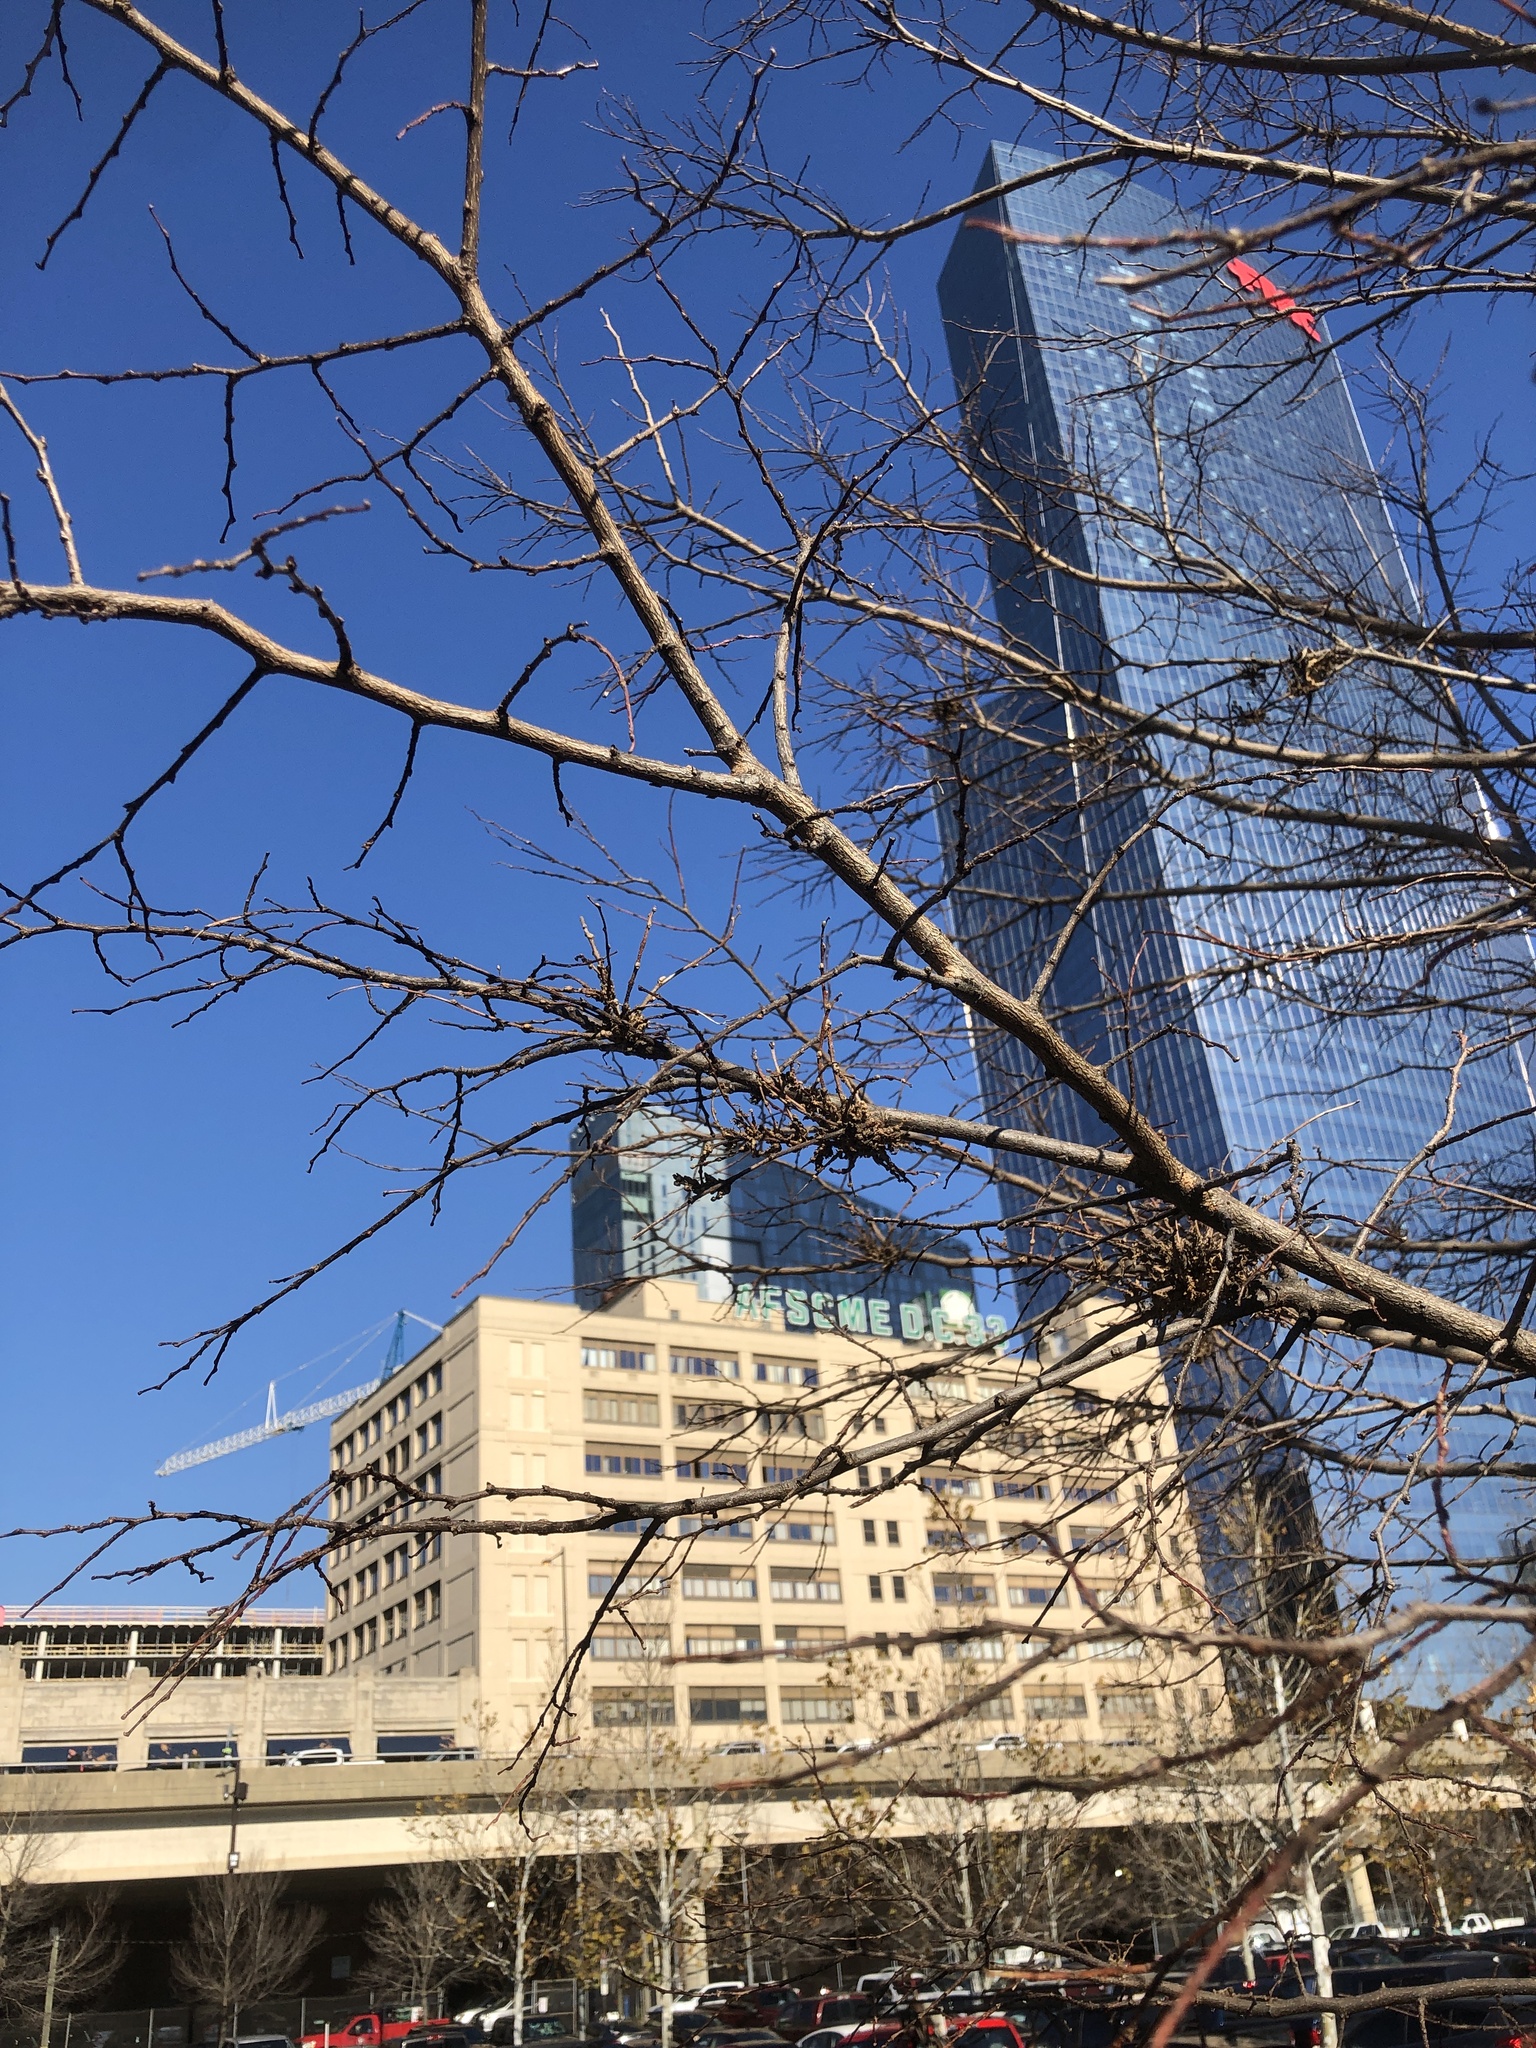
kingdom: Animalia
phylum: Arthropoda
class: Arachnida
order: Trombidiformes
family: Eriophyidae
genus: Aceria
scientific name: Aceria
